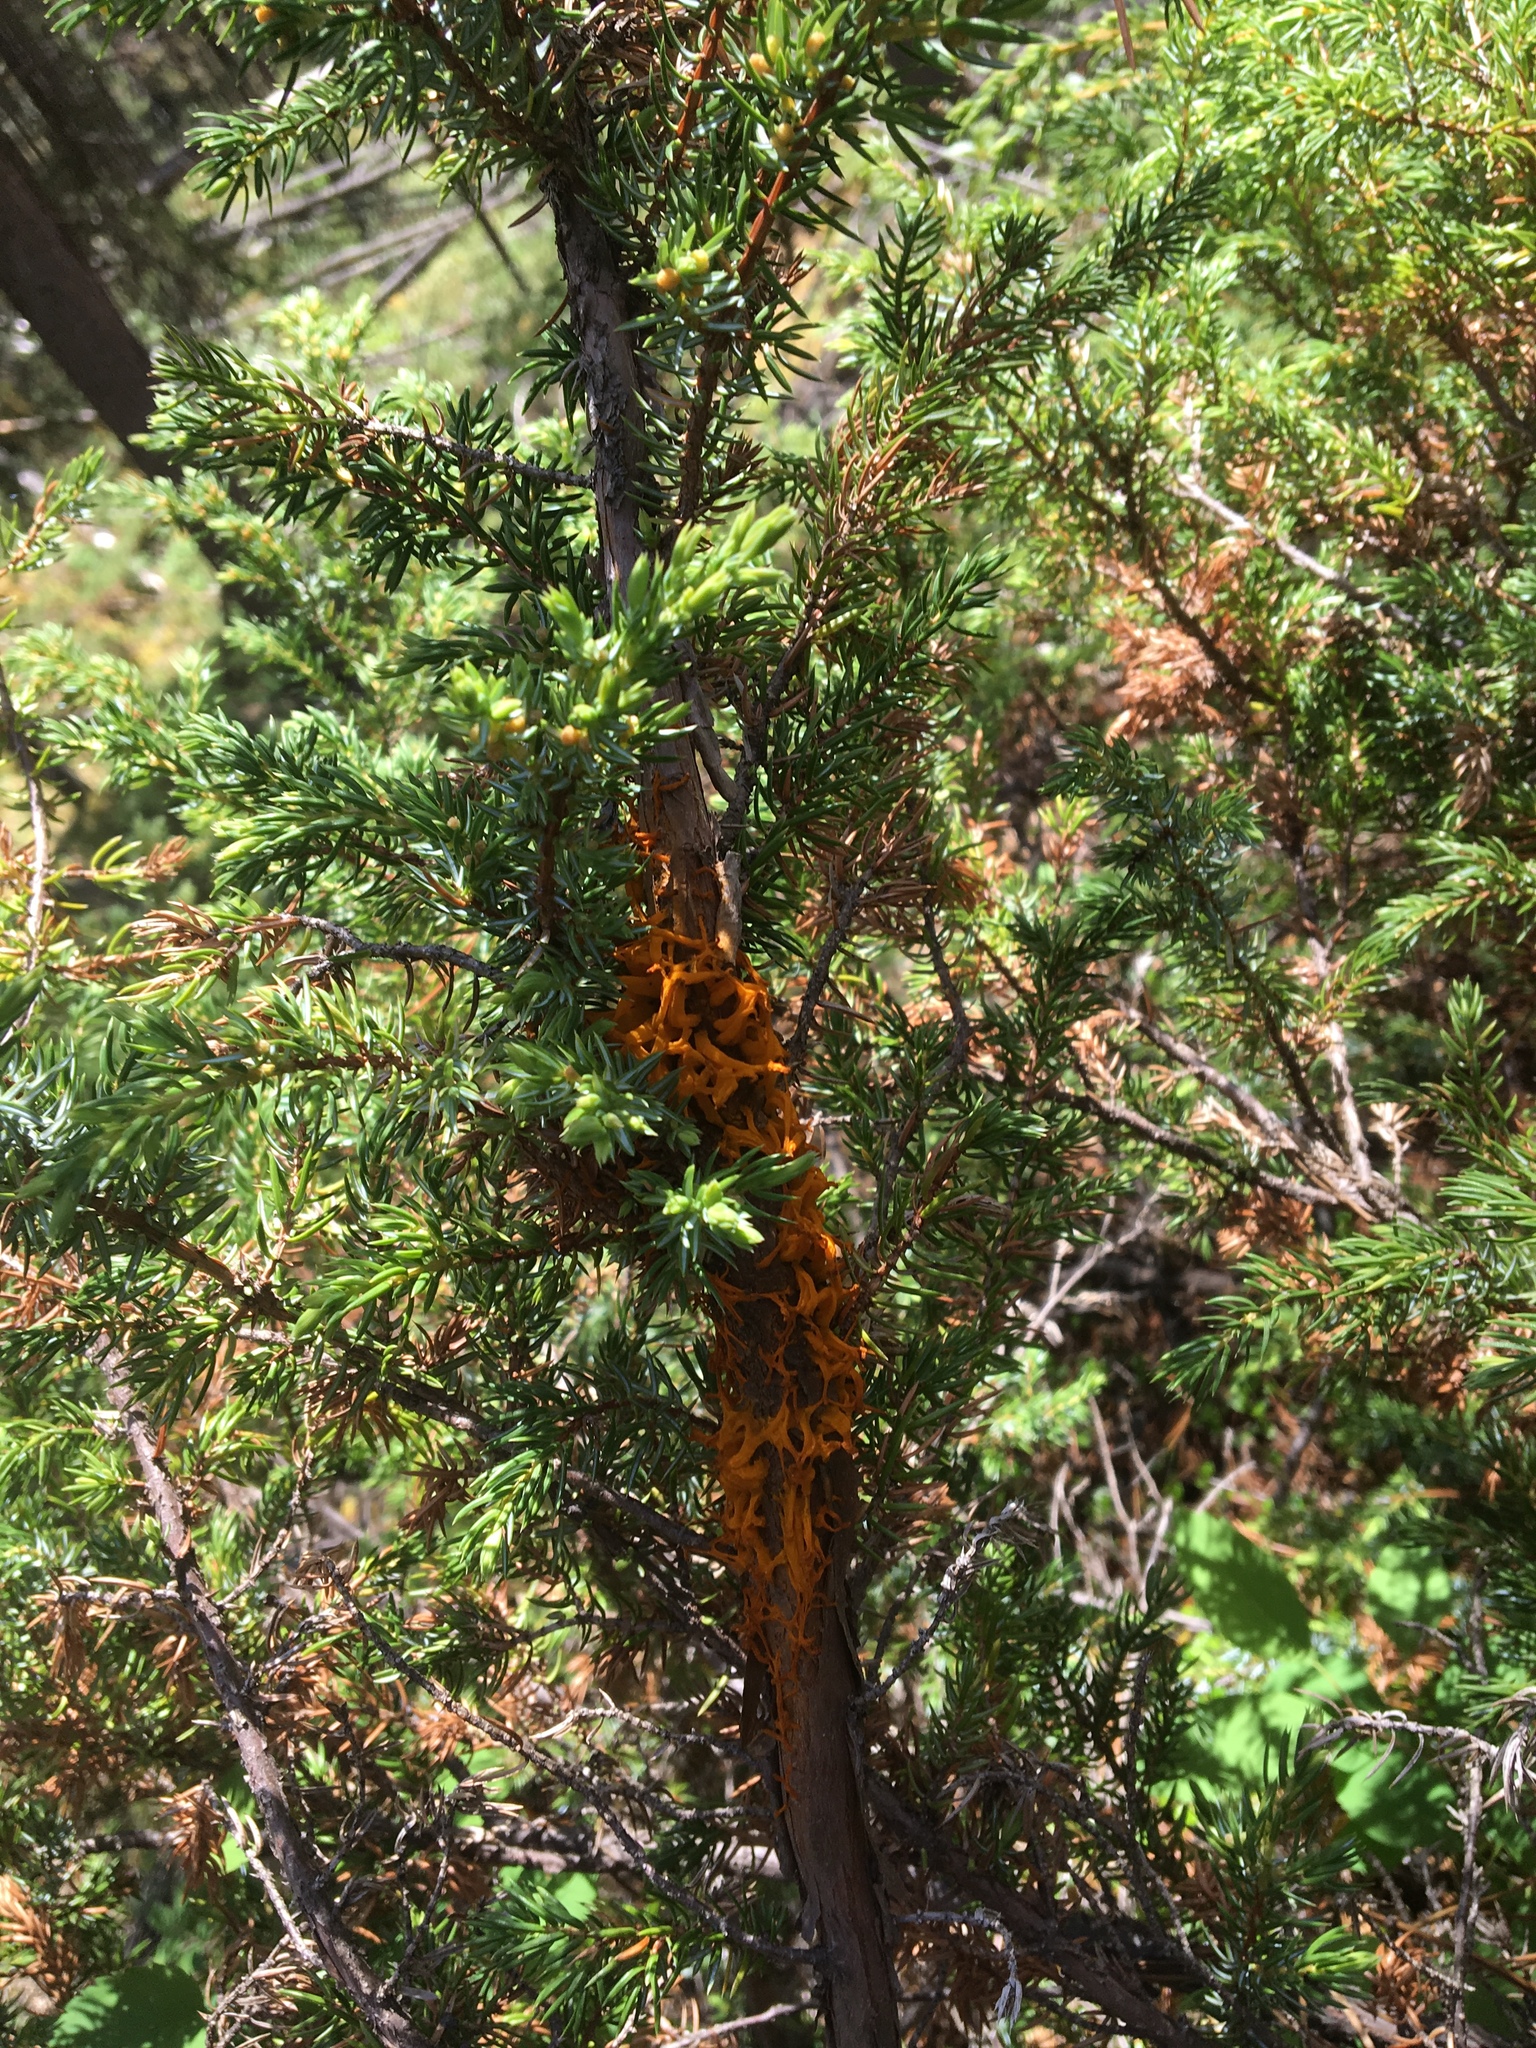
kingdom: Fungi
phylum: Basidiomycota
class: Pucciniomycetes
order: Pucciniales
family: Gymnosporangiaceae
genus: Gymnosporangium
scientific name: Gymnosporangium juniperi-virginianae
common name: Juniper-apple rust
